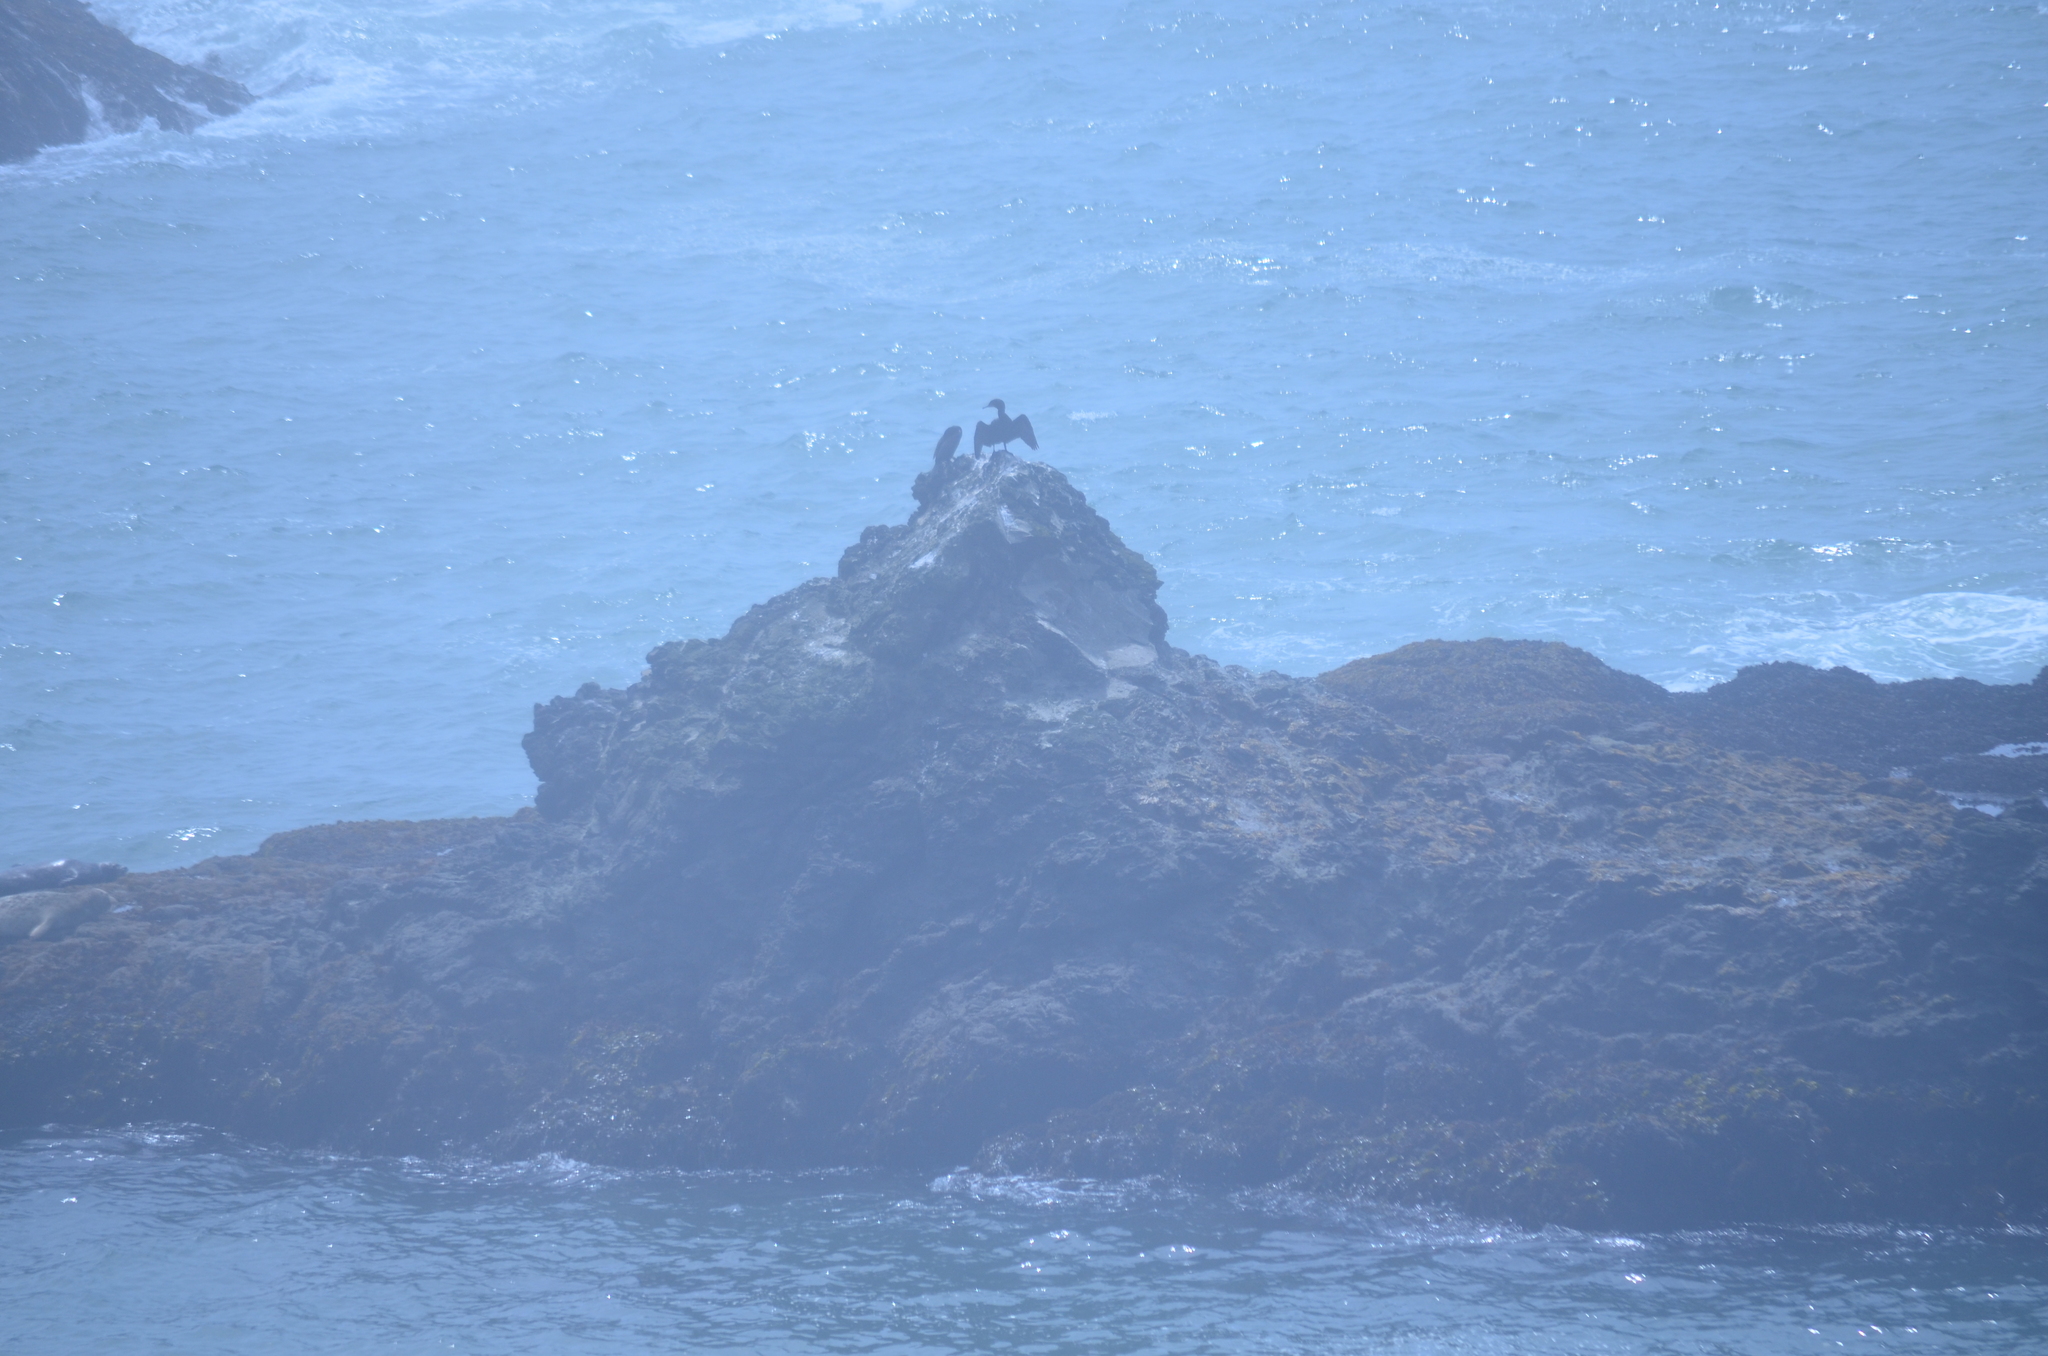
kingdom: Animalia
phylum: Chordata
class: Aves
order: Suliformes
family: Phalacrocoracidae
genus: Phalacrocorax
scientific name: Phalacrocorax auritus
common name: Double-crested cormorant
